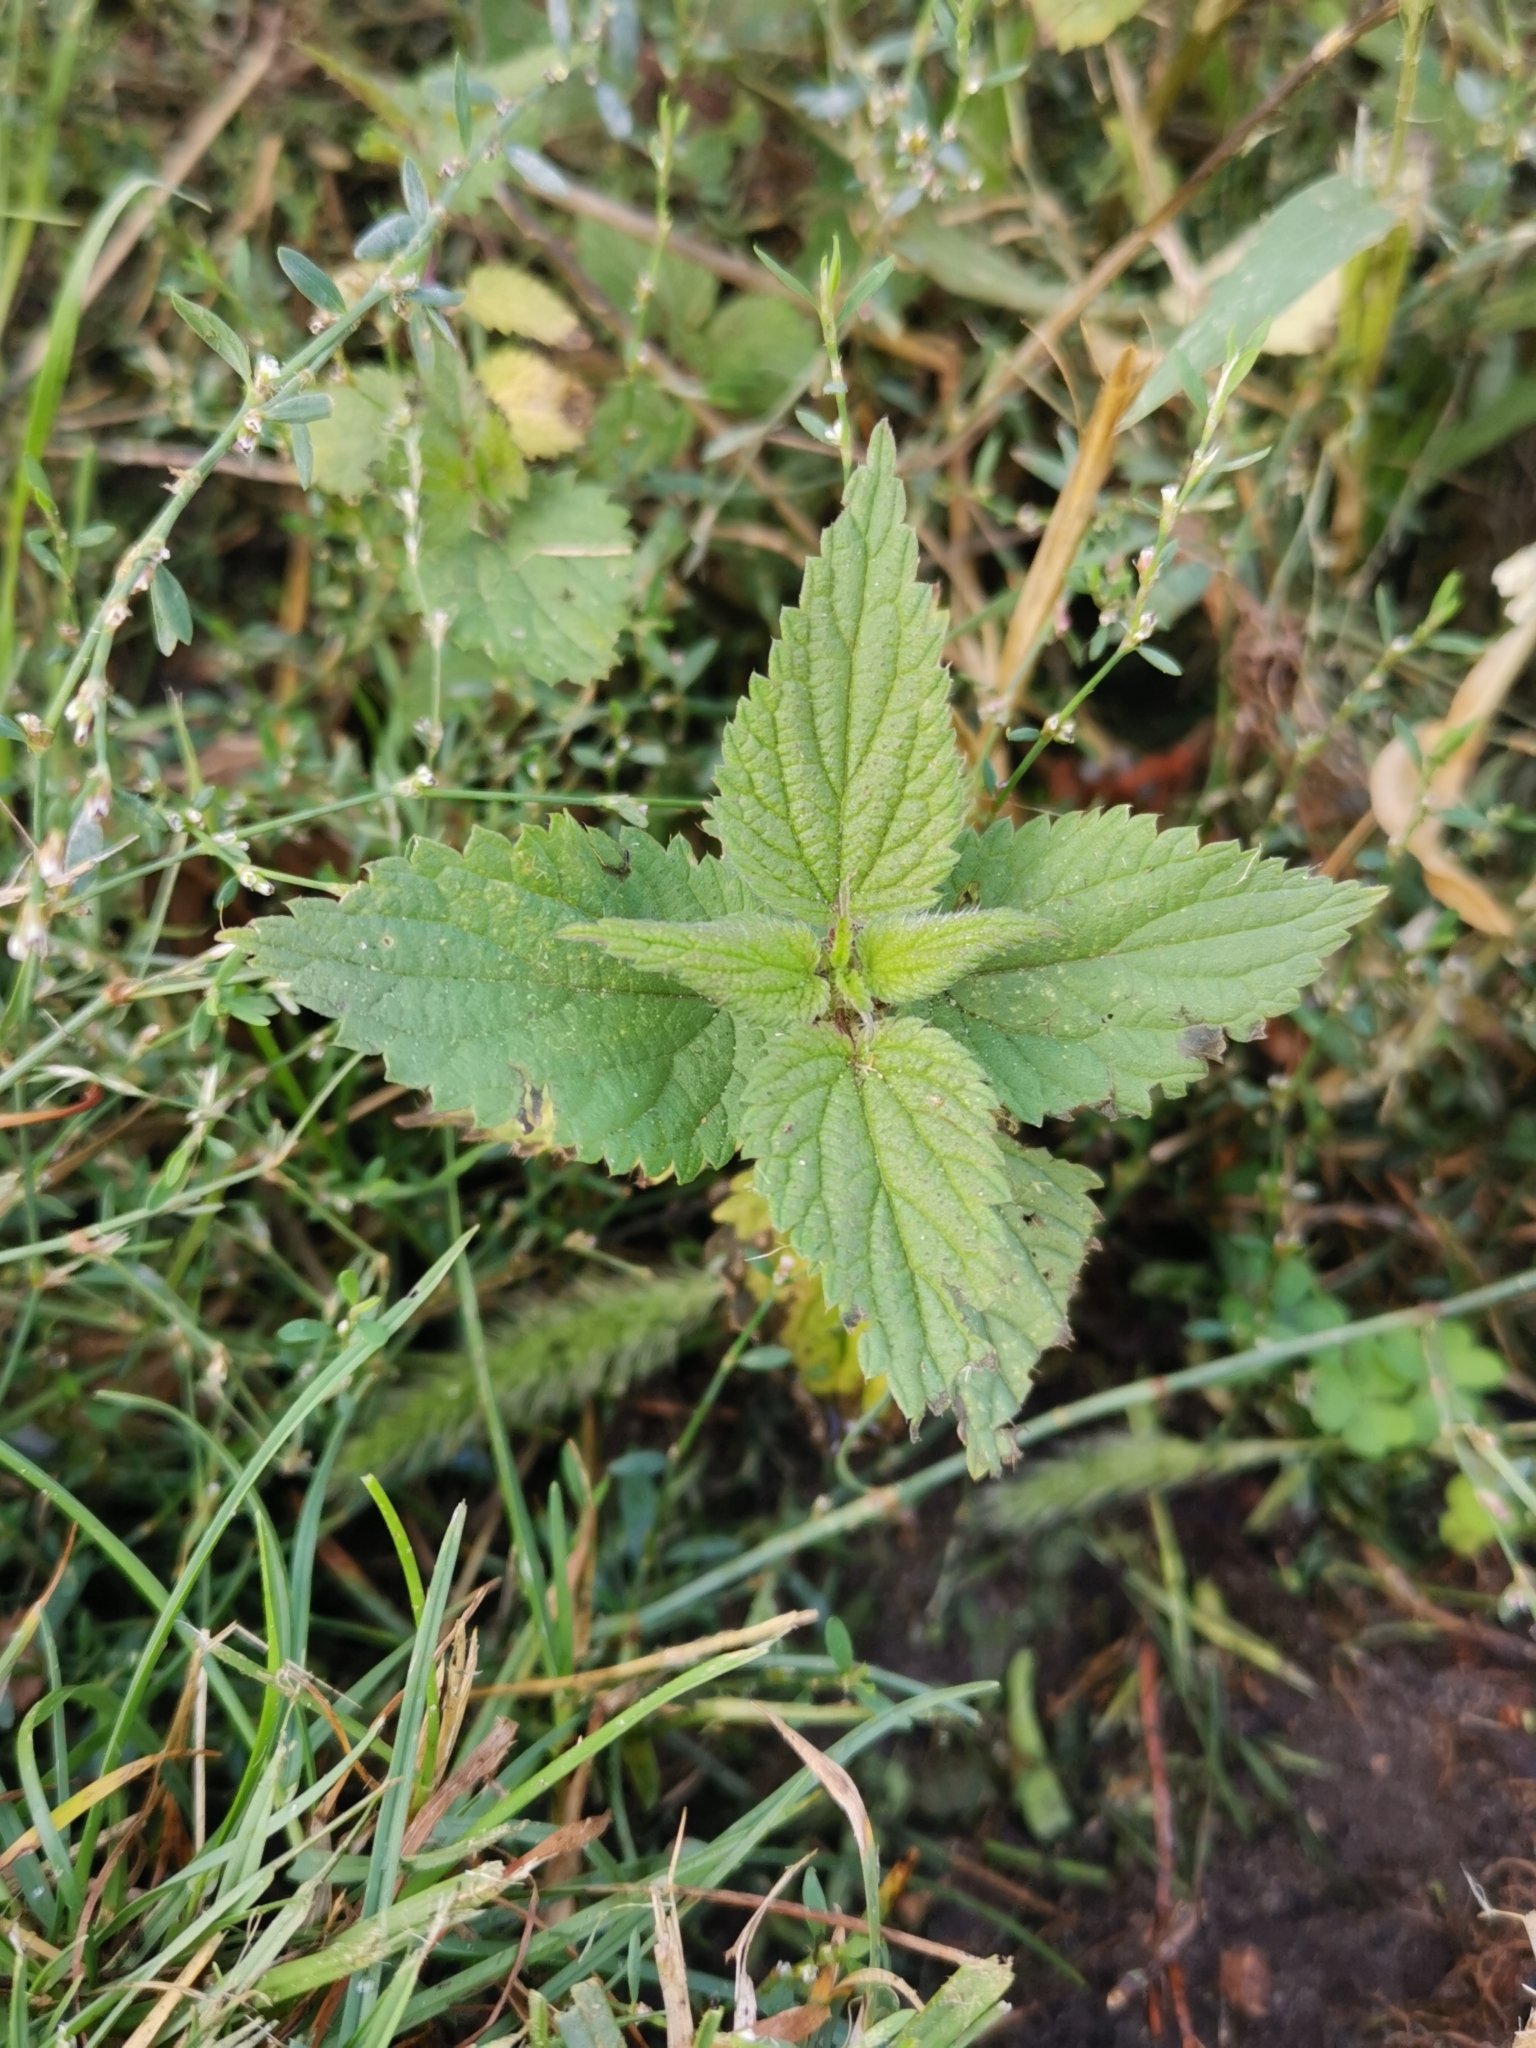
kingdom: Plantae
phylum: Tracheophyta
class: Magnoliopsida
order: Rosales
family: Urticaceae
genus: Urtica
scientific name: Urtica dioica
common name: Common nettle
